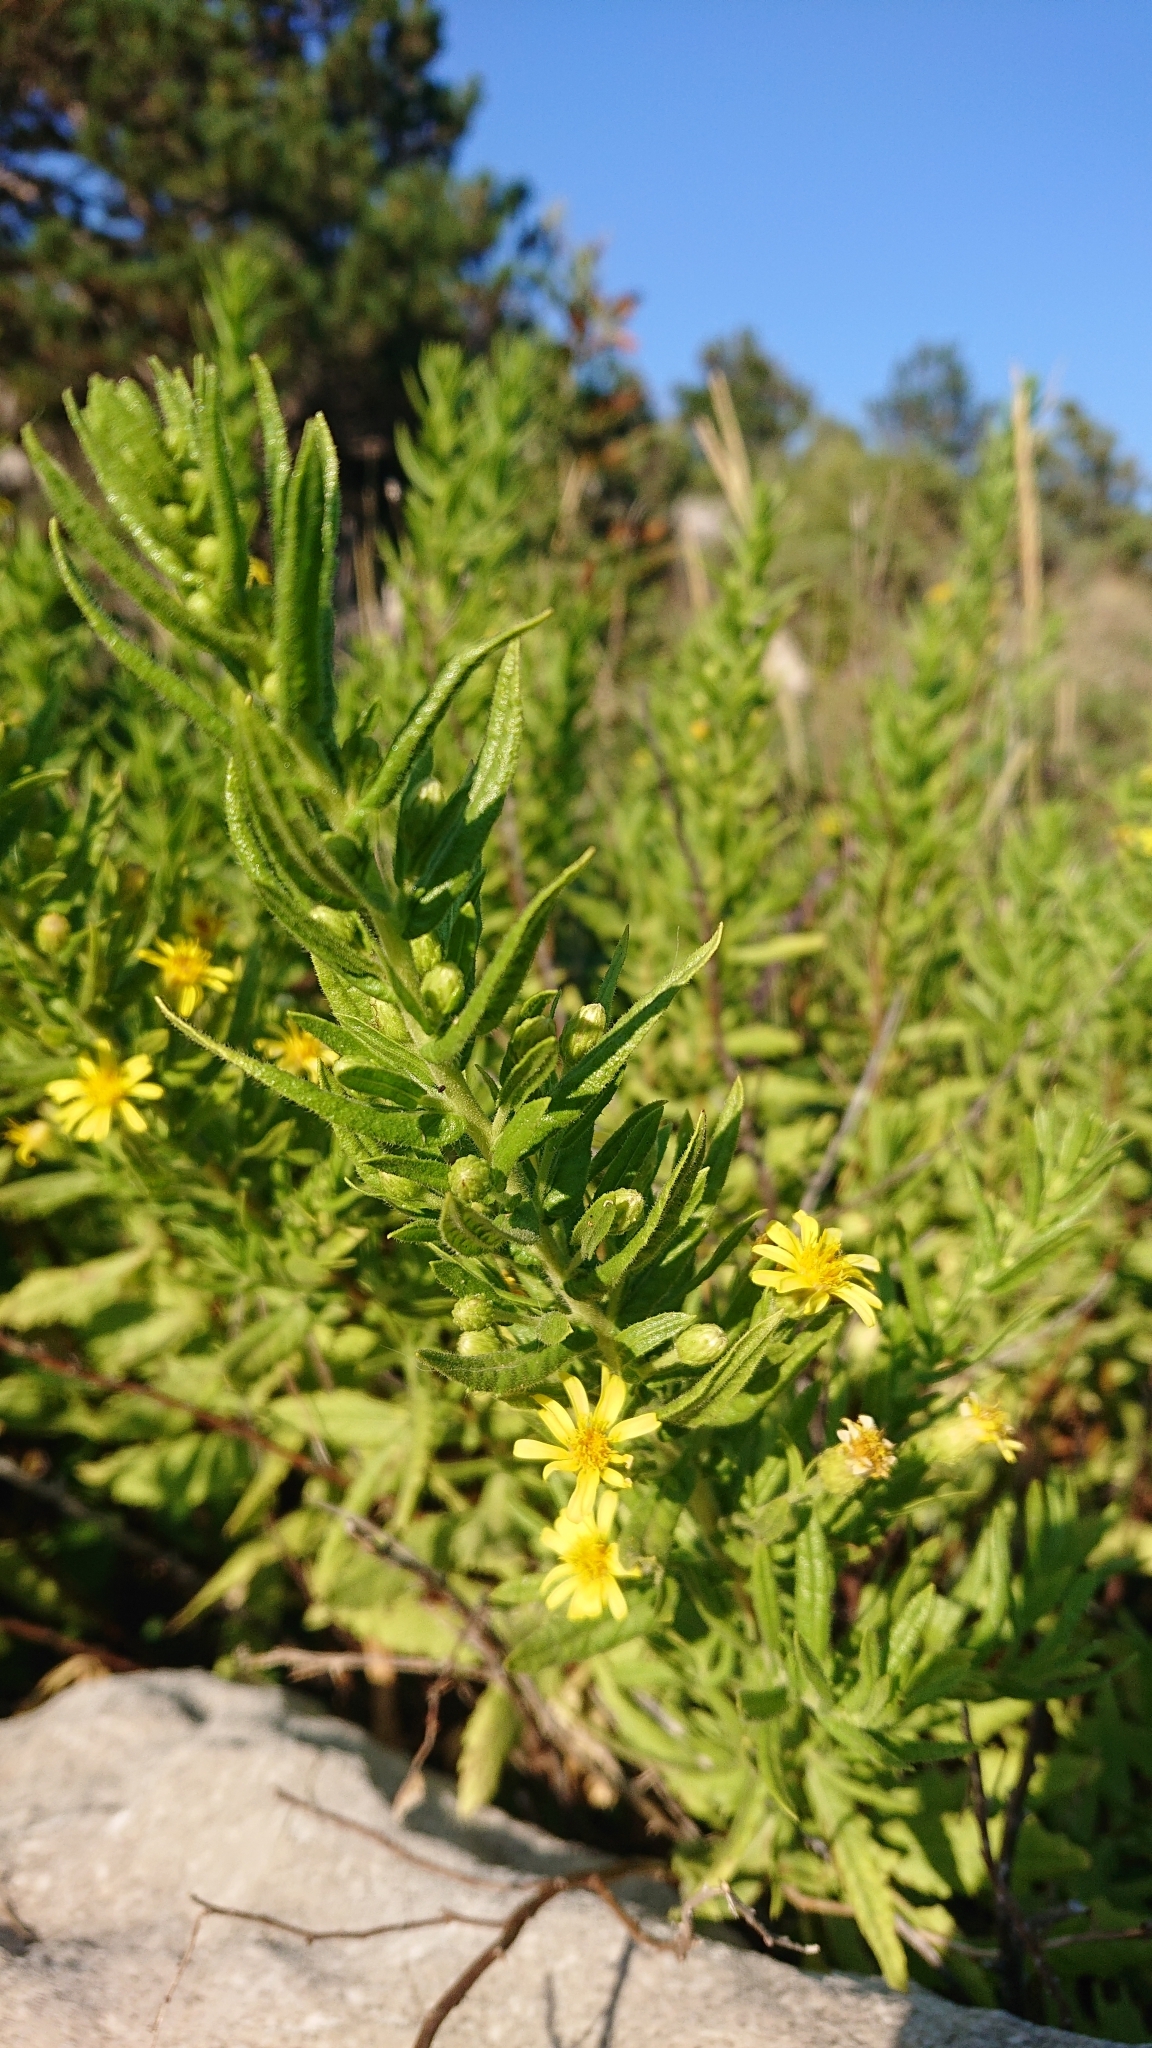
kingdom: Plantae
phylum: Tracheophyta
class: Magnoliopsida
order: Asterales
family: Asteraceae
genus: Dittrichia
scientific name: Dittrichia viscosa
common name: Woody fleabane
